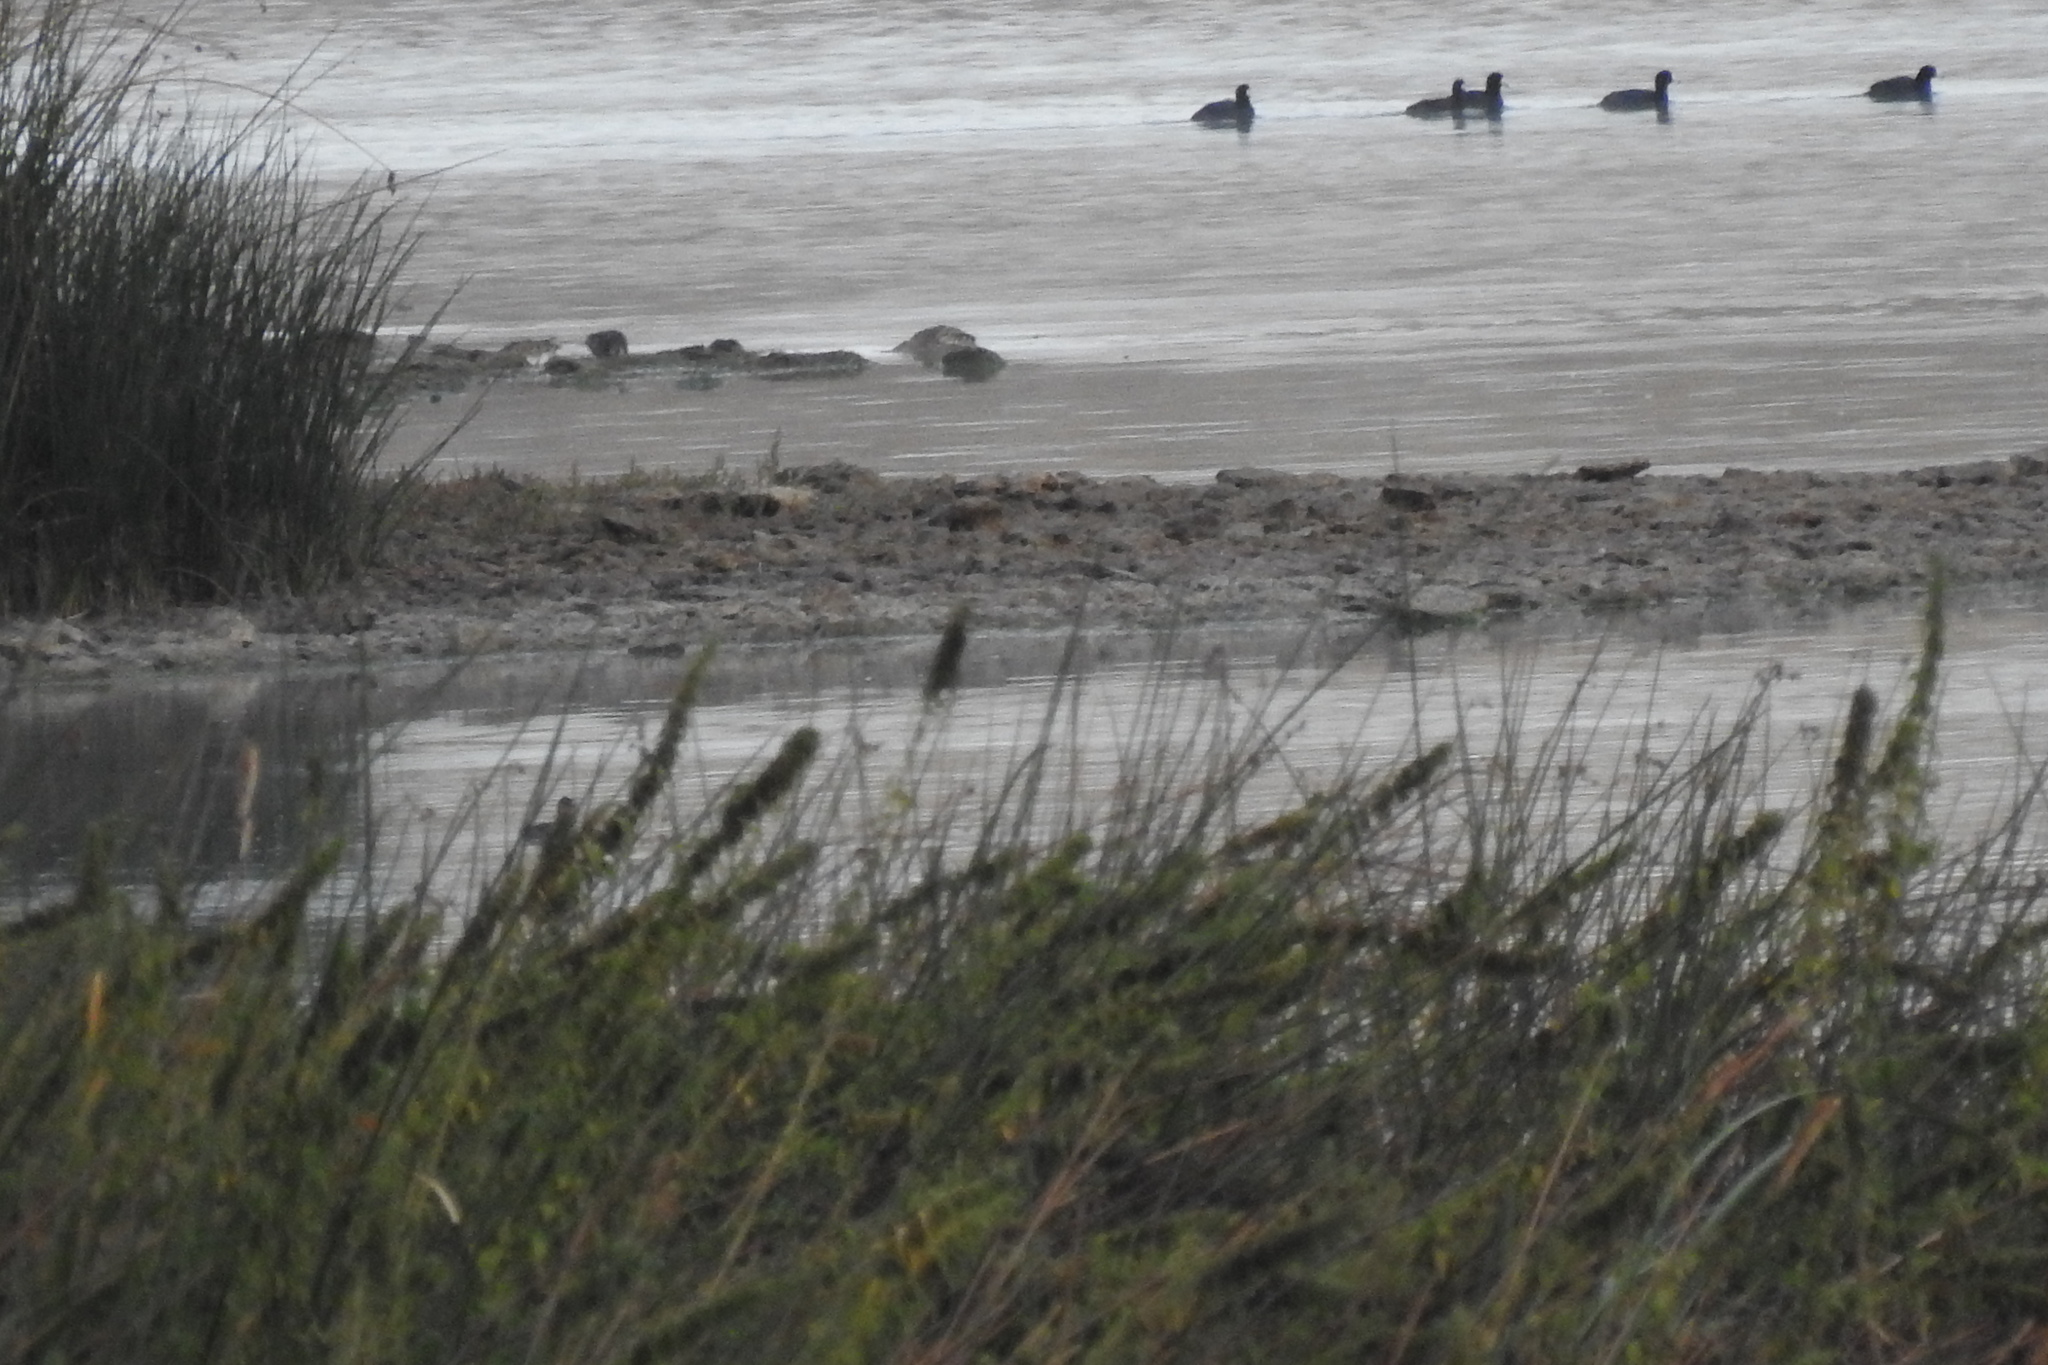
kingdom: Animalia
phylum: Chordata
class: Aves
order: Gruiformes
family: Rallidae
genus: Fulica
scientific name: Fulica americana
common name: American coot
